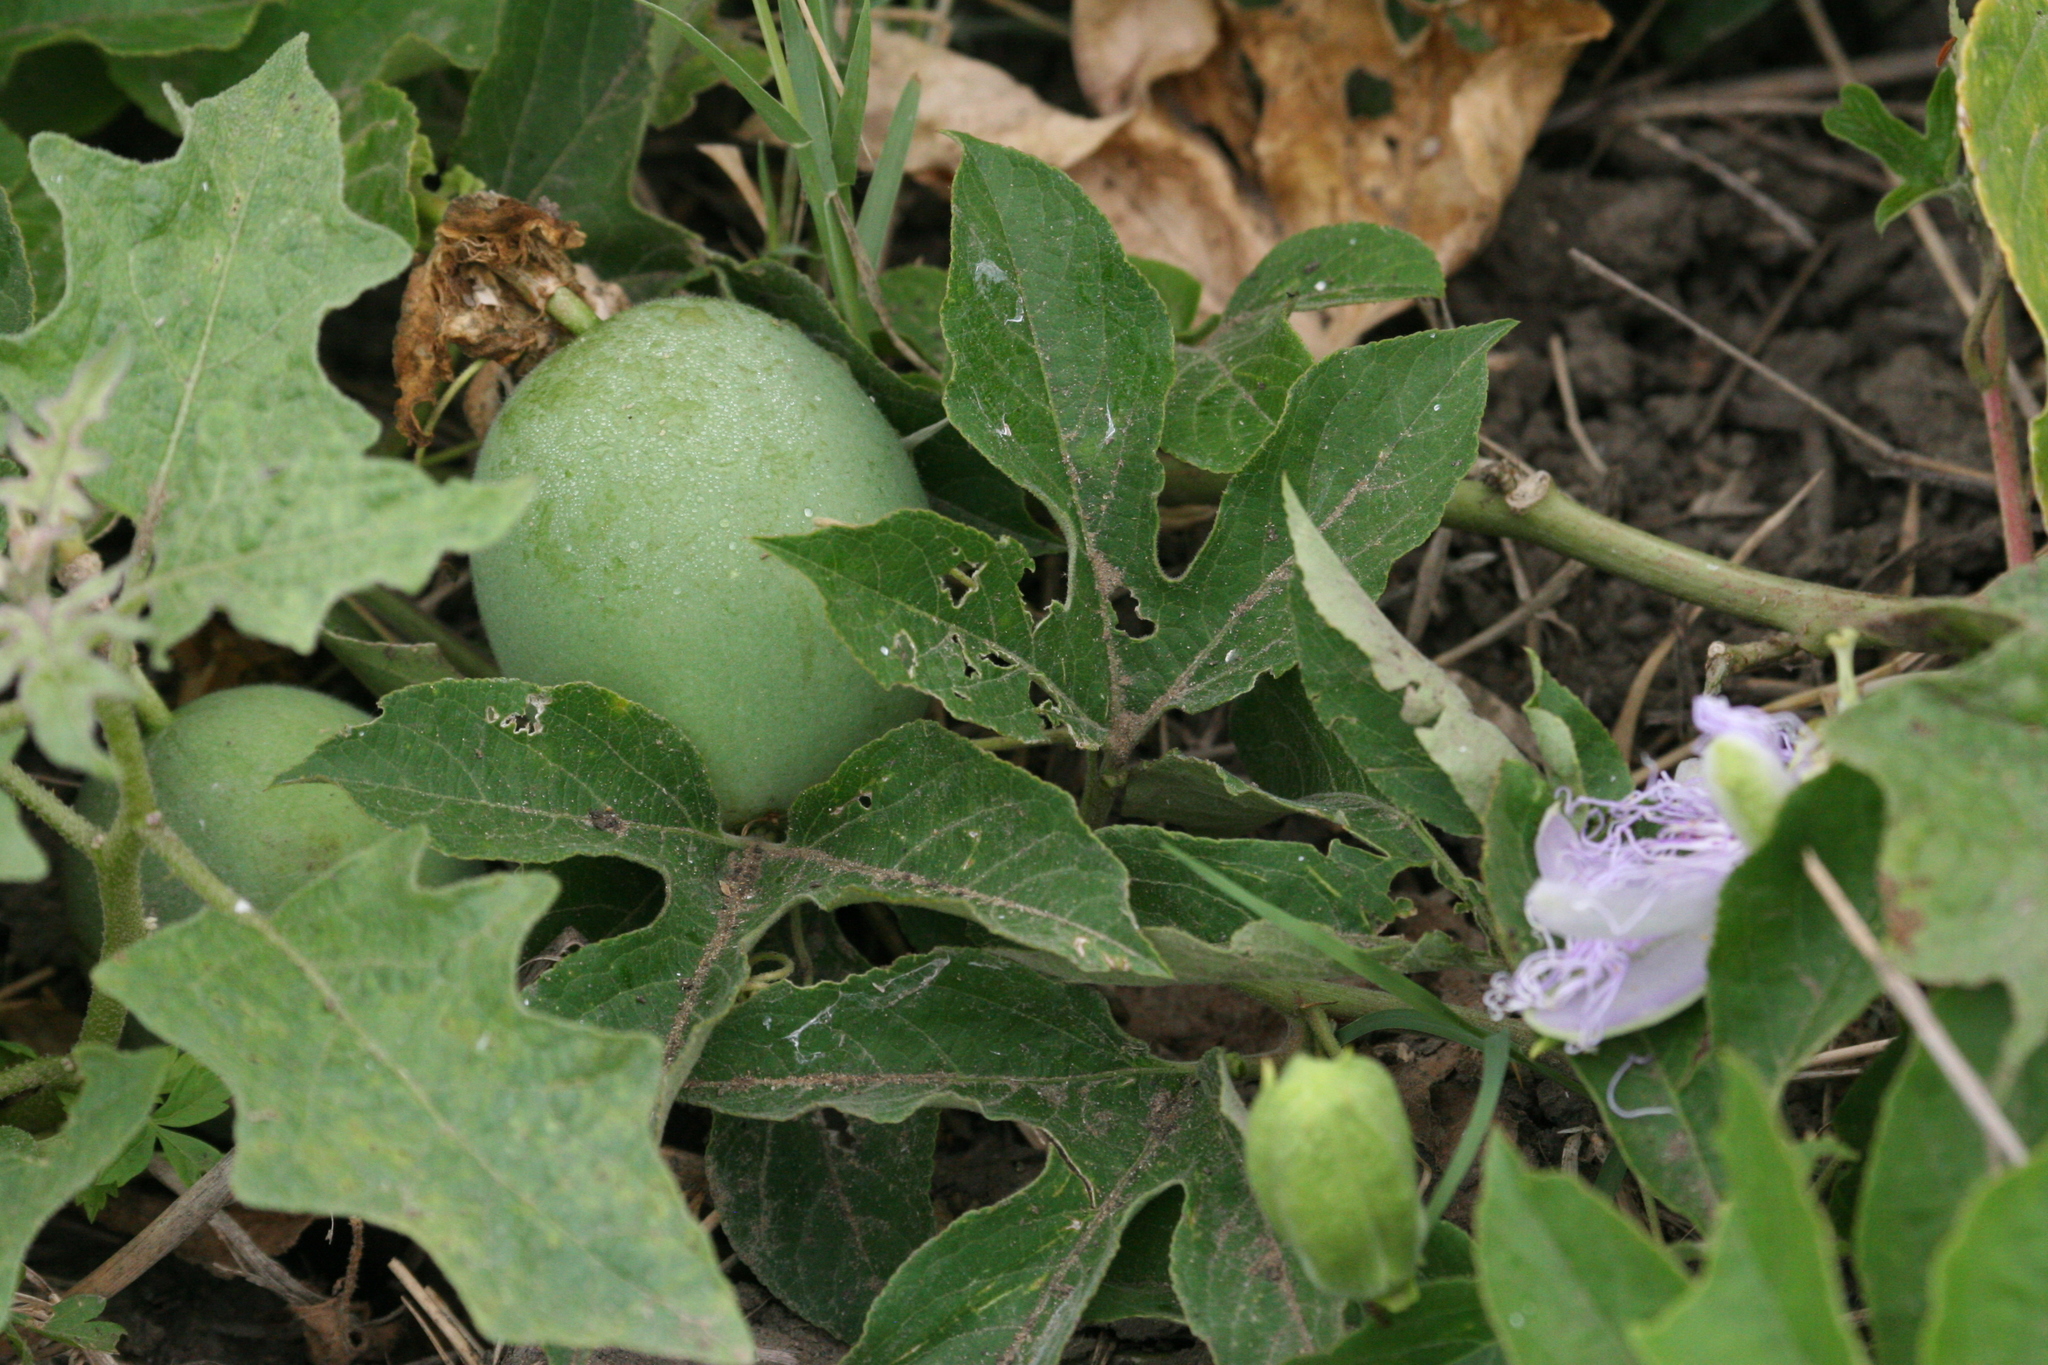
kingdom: Plantae
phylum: Tracheophyta
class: Magnoliopsida
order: Malpighiales
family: Passifloraceae
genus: Passiflora
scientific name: Passiflora incarnata
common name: Apricot-vine
